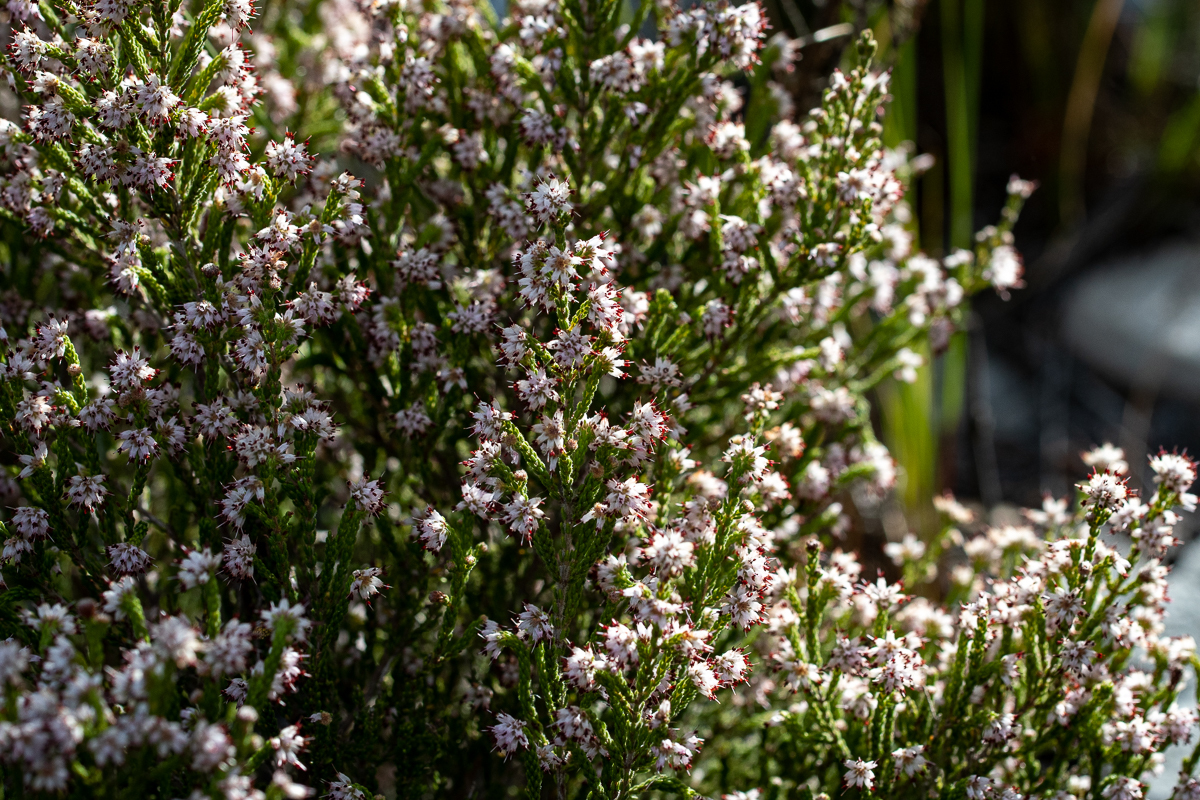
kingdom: Plantae
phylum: Tracheophyta
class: Magnoliopsida
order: Ericales
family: Ericaceae
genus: Erica
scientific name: Erica ericoides
